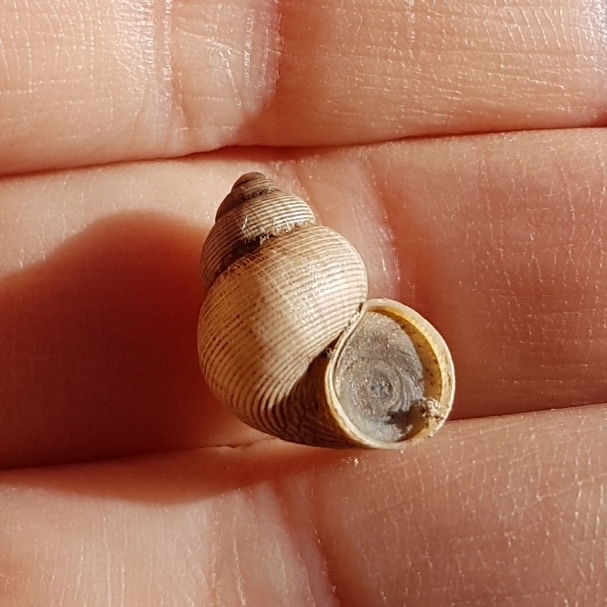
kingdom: Animalia
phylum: Mollusca
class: Gastropoda
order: Littorinimorpha
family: Pomatiidae
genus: Pomatias
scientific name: Pomatias elegans
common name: Red-mouthed snail
